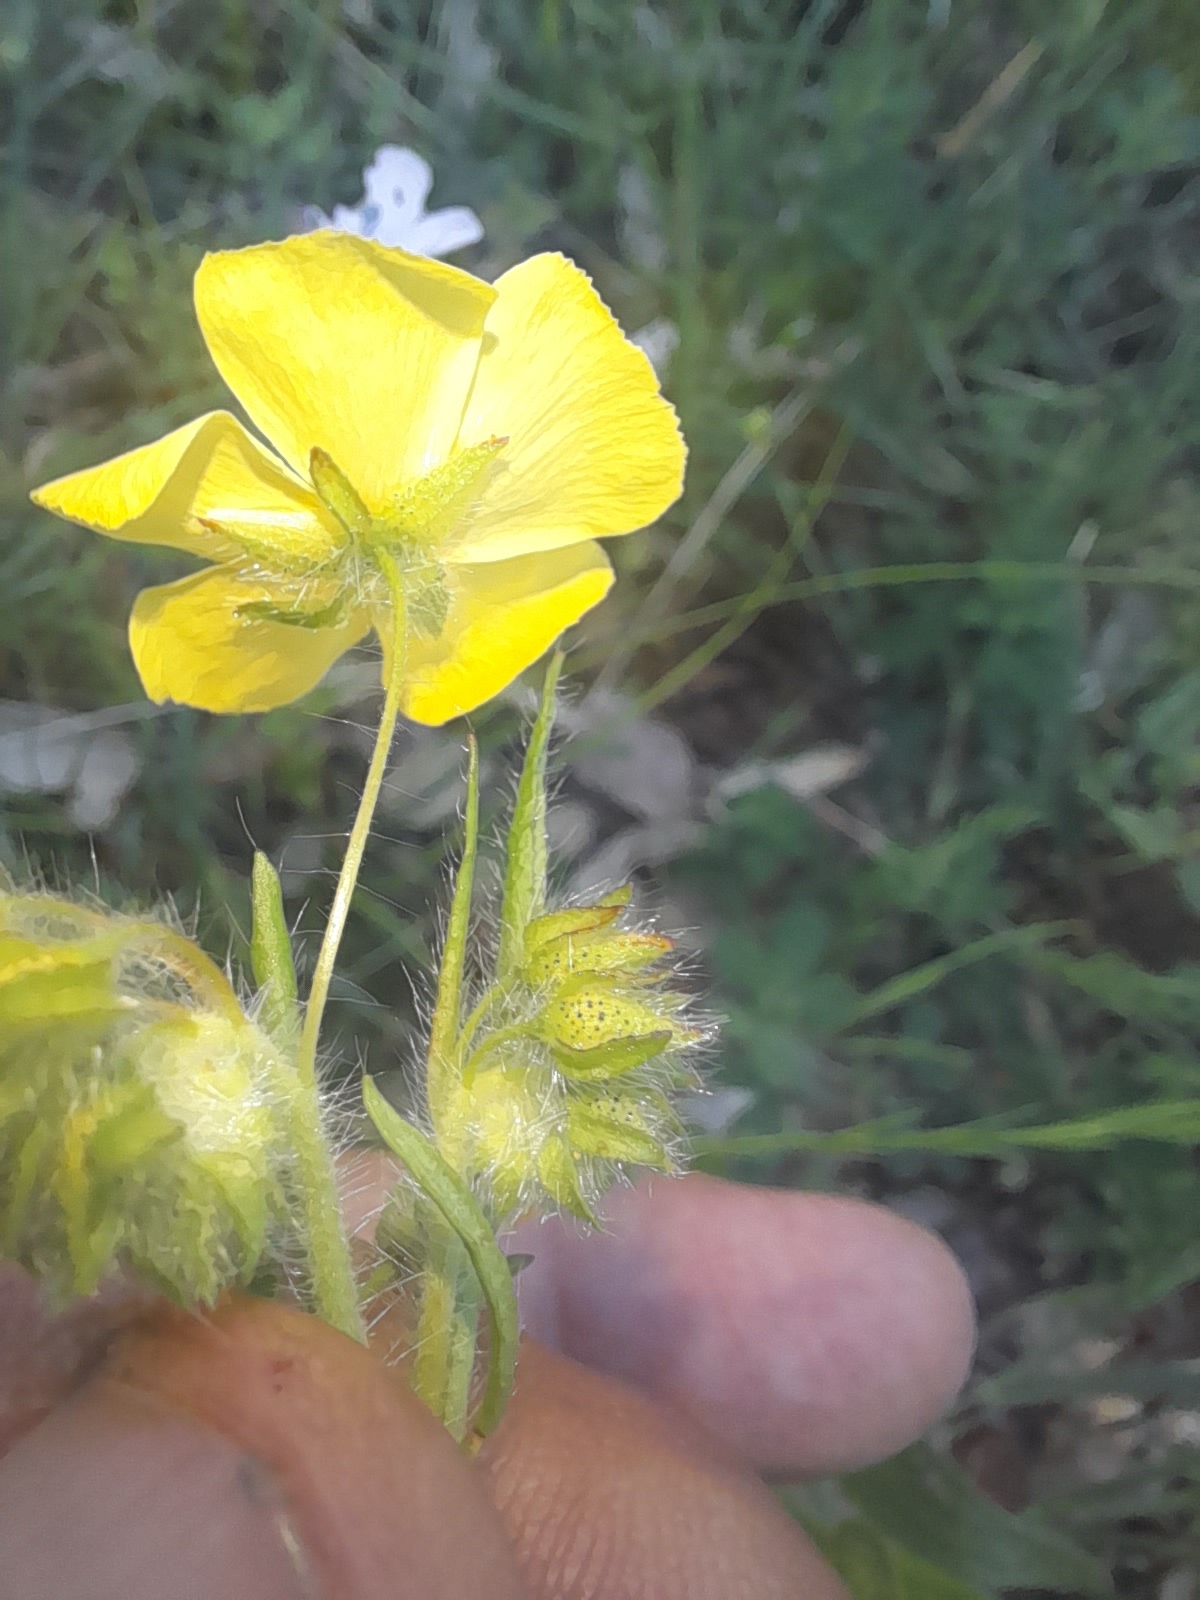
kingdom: Plantae
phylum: Tracheophyta
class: Magnoliopsida
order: Malvales
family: Cistaceae
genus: Tuberaria
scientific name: Tuberaria guttata
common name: Spotted rock-rose
